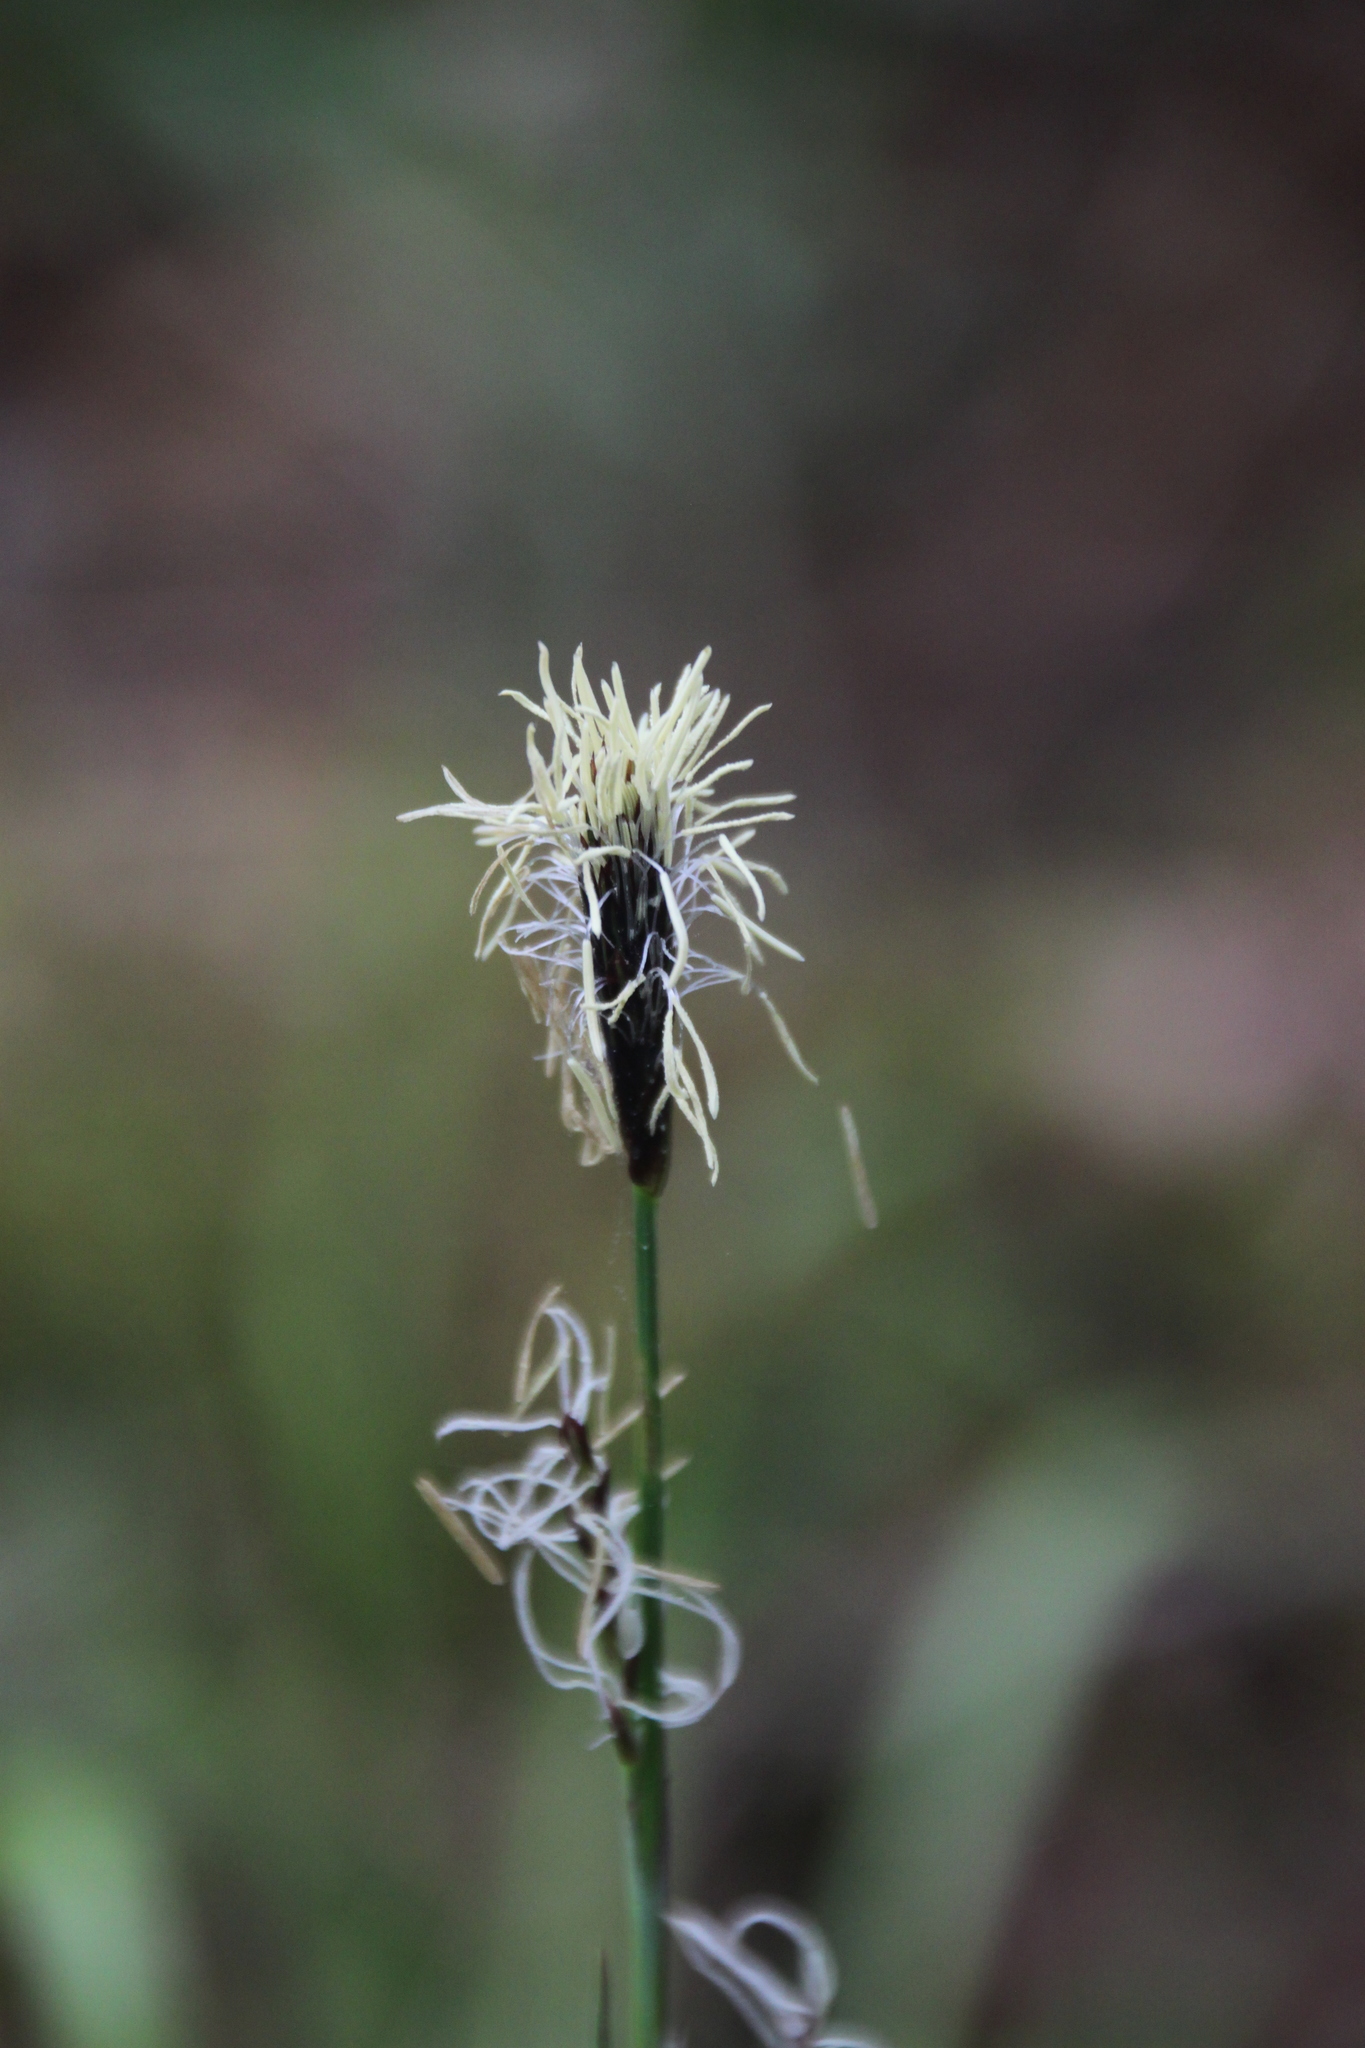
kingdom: Plantae
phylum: Tracheophyta
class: Liliopsida
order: Poales
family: Cyperaceae
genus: Carex
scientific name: Carex pilosa
